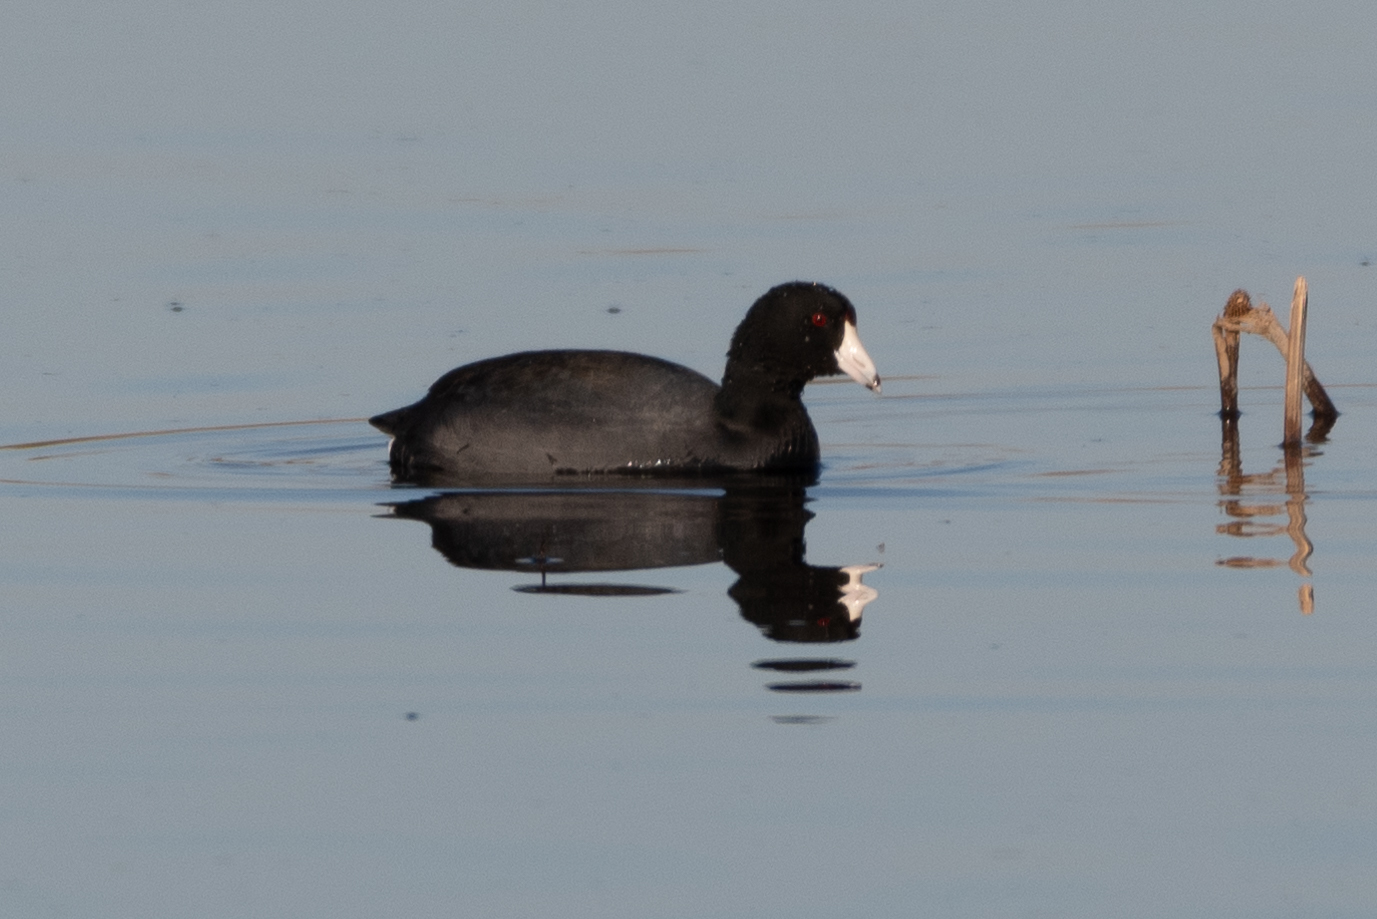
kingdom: Animalia
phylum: Chordata
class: Aves
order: Gruiformes
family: Rallidae
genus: Fulica
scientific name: Fulica americana
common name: American coot
